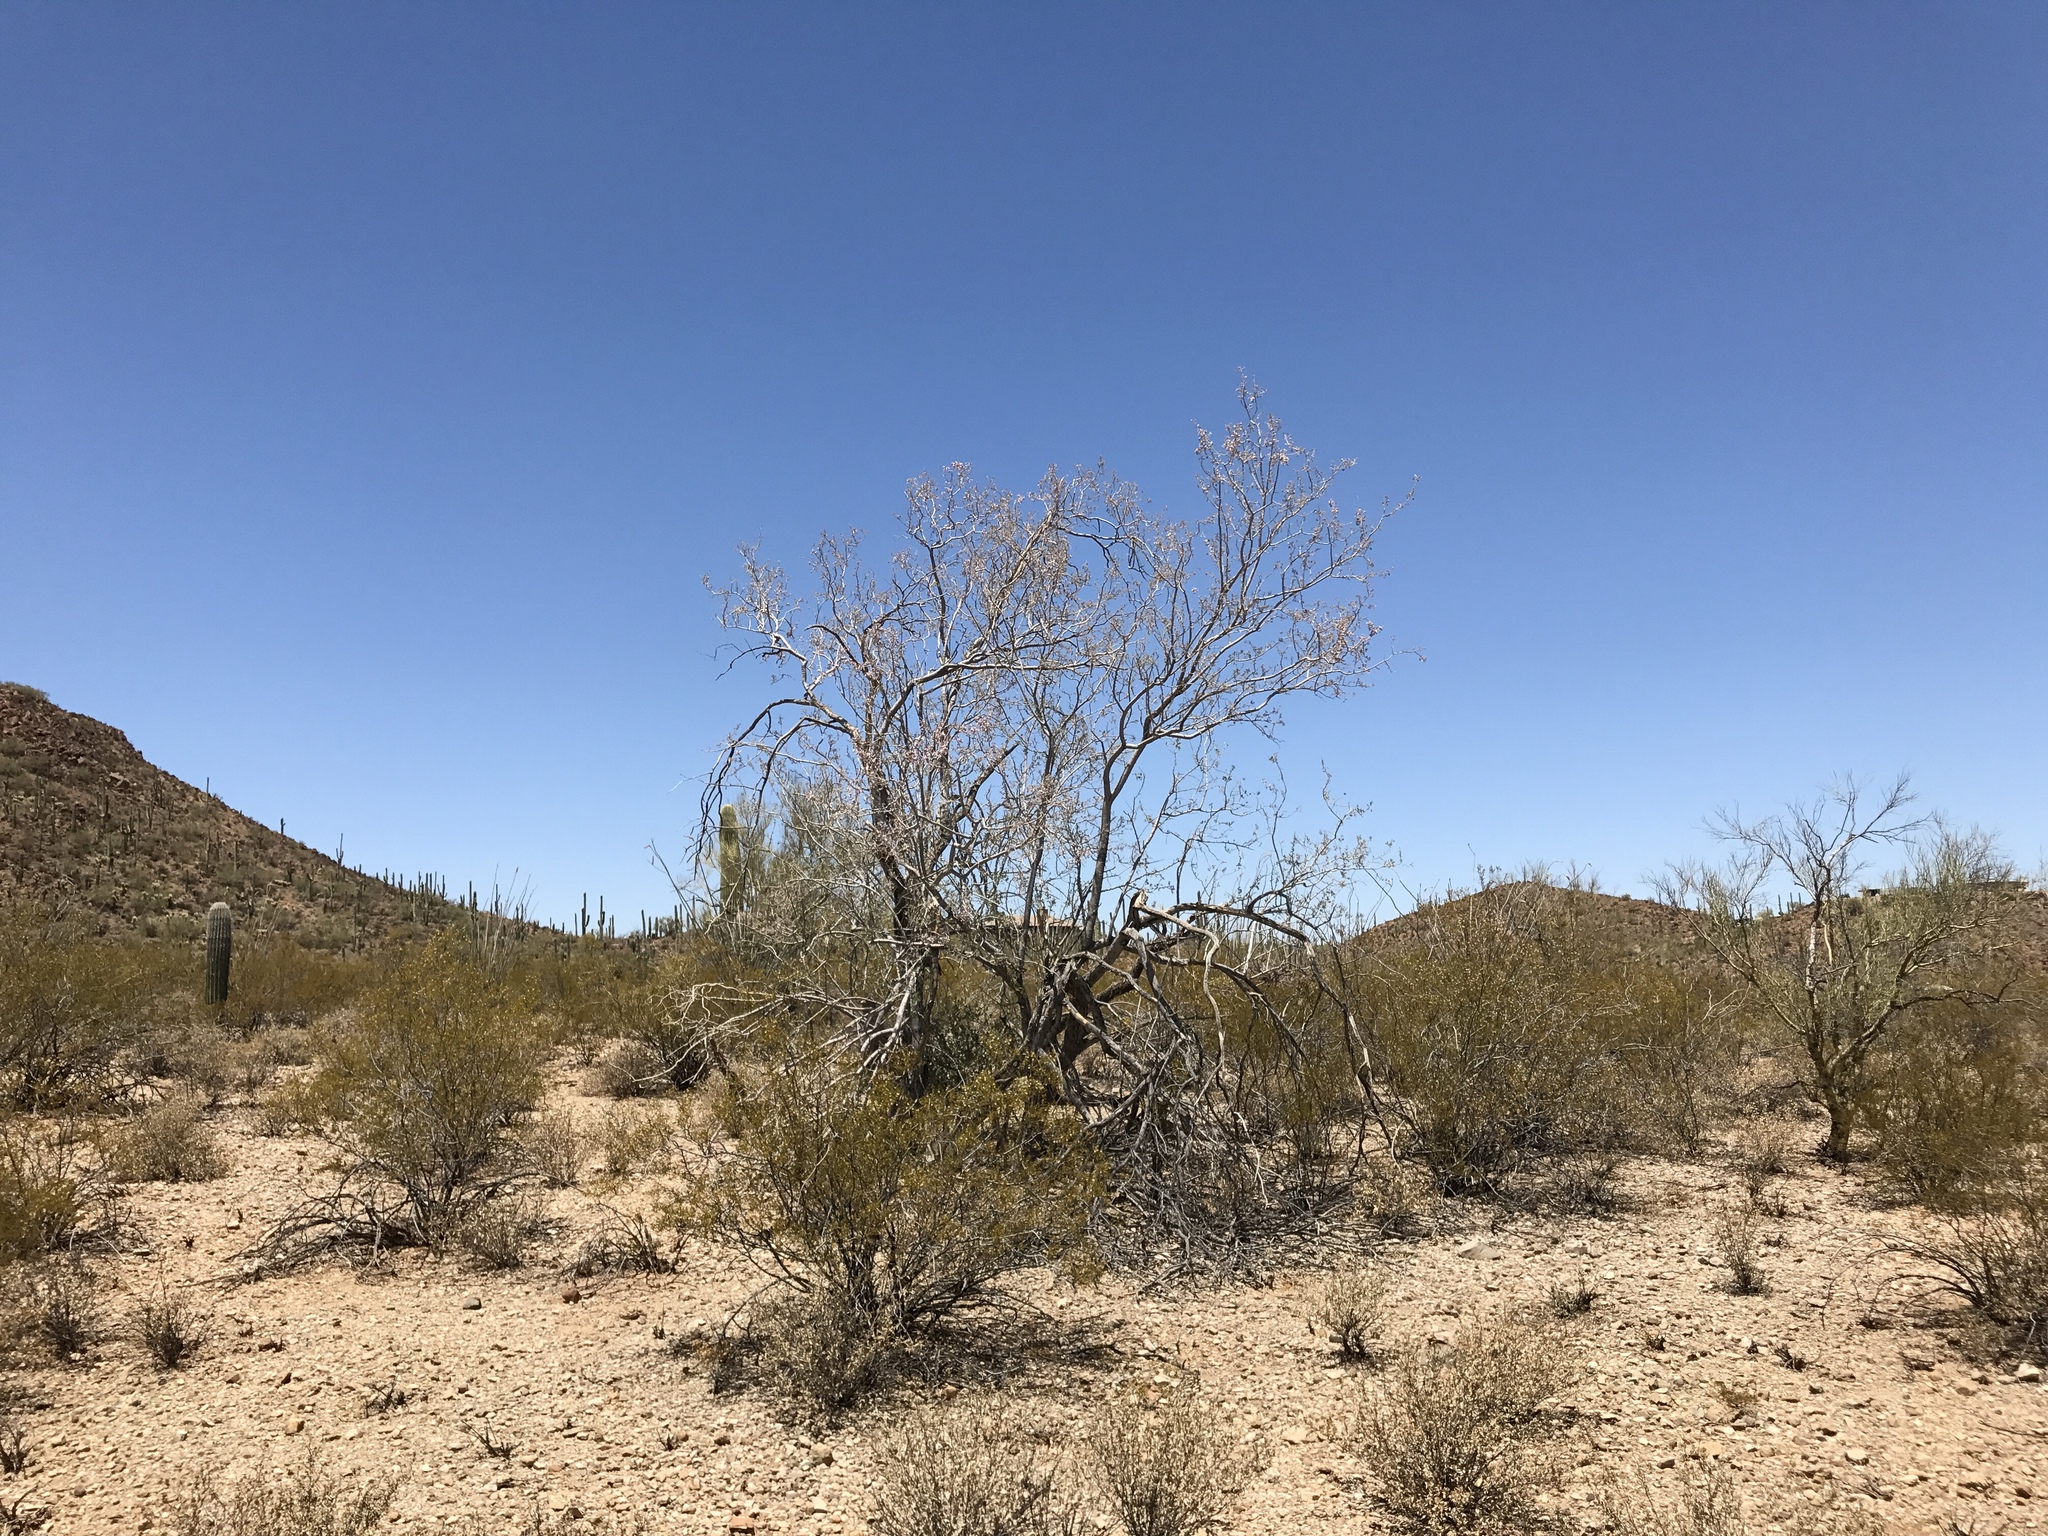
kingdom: Plantae
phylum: Tracheophyta
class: Magnoliopsida
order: Fabales
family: Fabaceae
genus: Olneya
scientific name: Olneya tesota
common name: Desert ironwood
